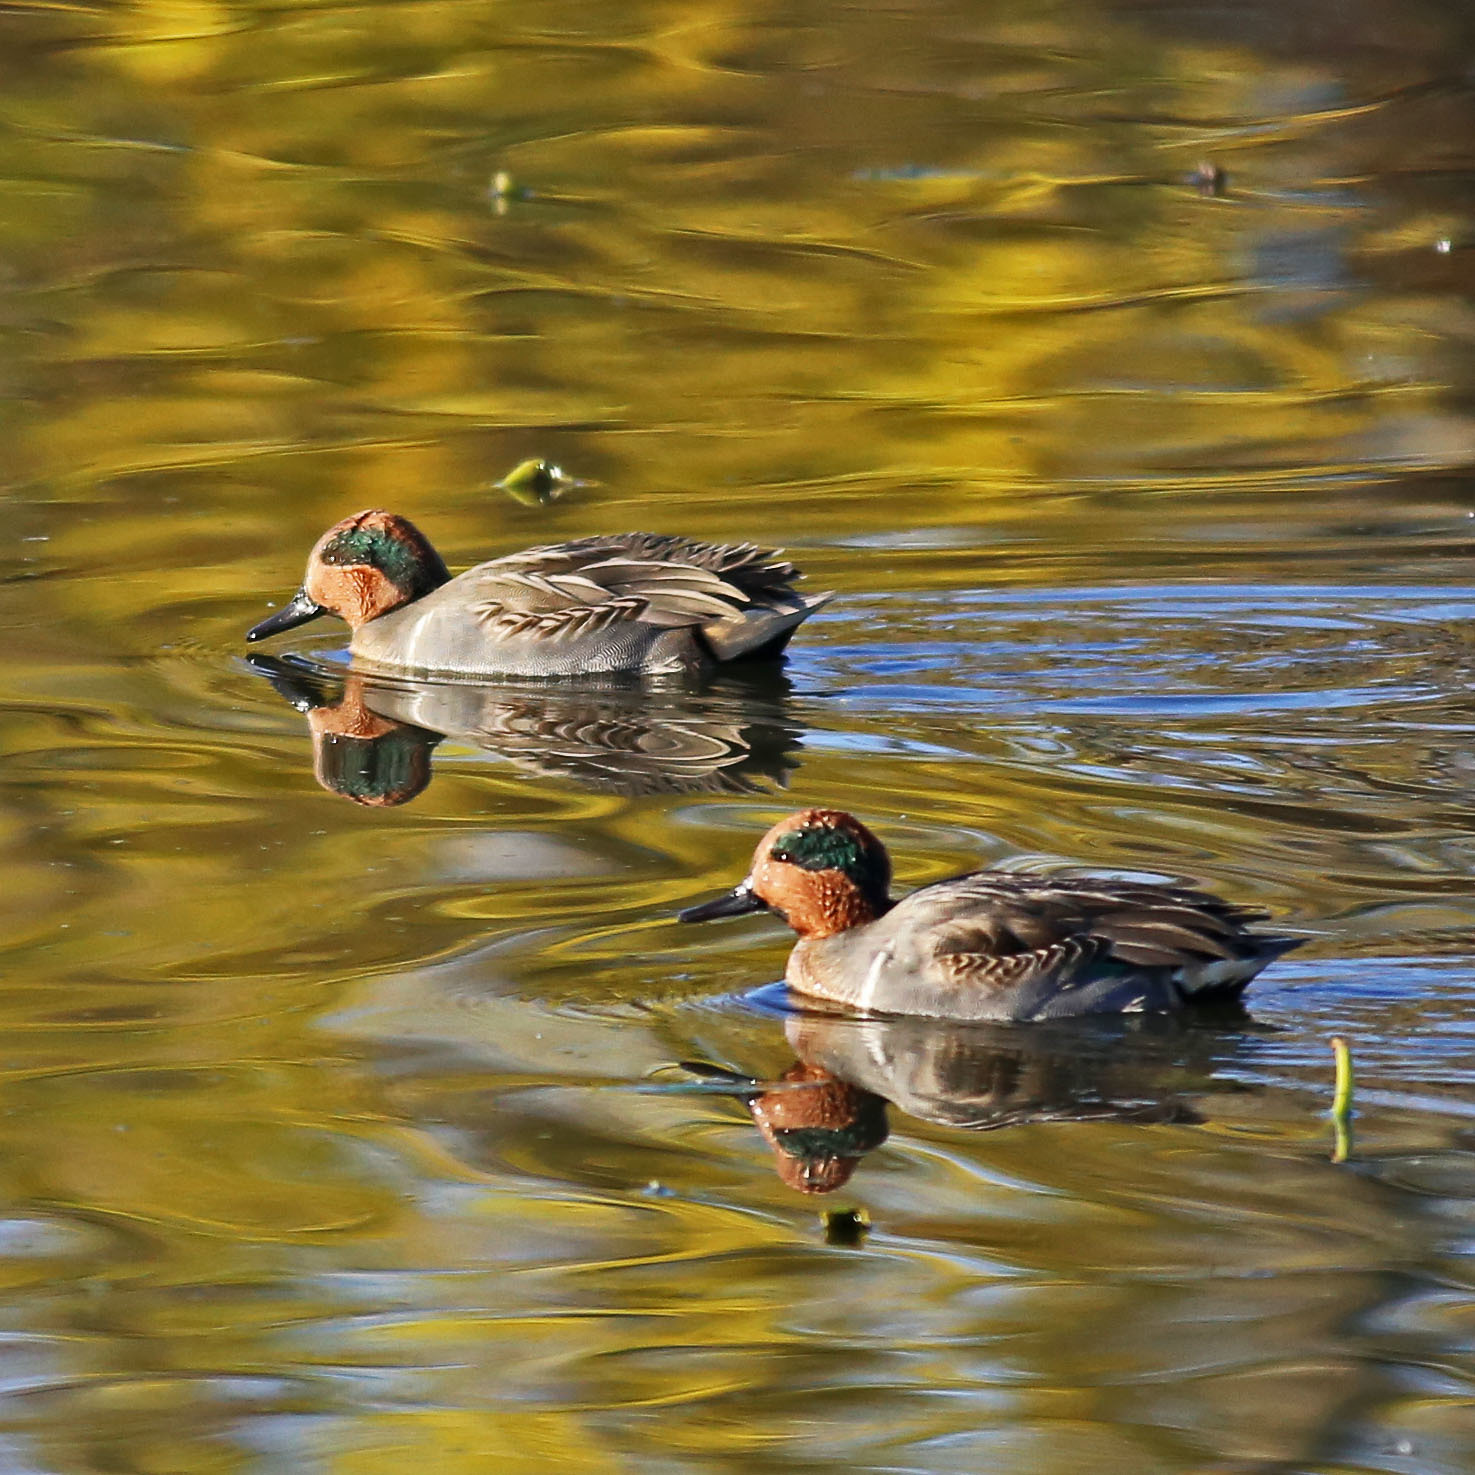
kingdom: Animalia
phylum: Chordata
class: Aves
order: Anseriformes
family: Anatidae
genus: Anas
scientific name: Anas crecca
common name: Eurasian teal
